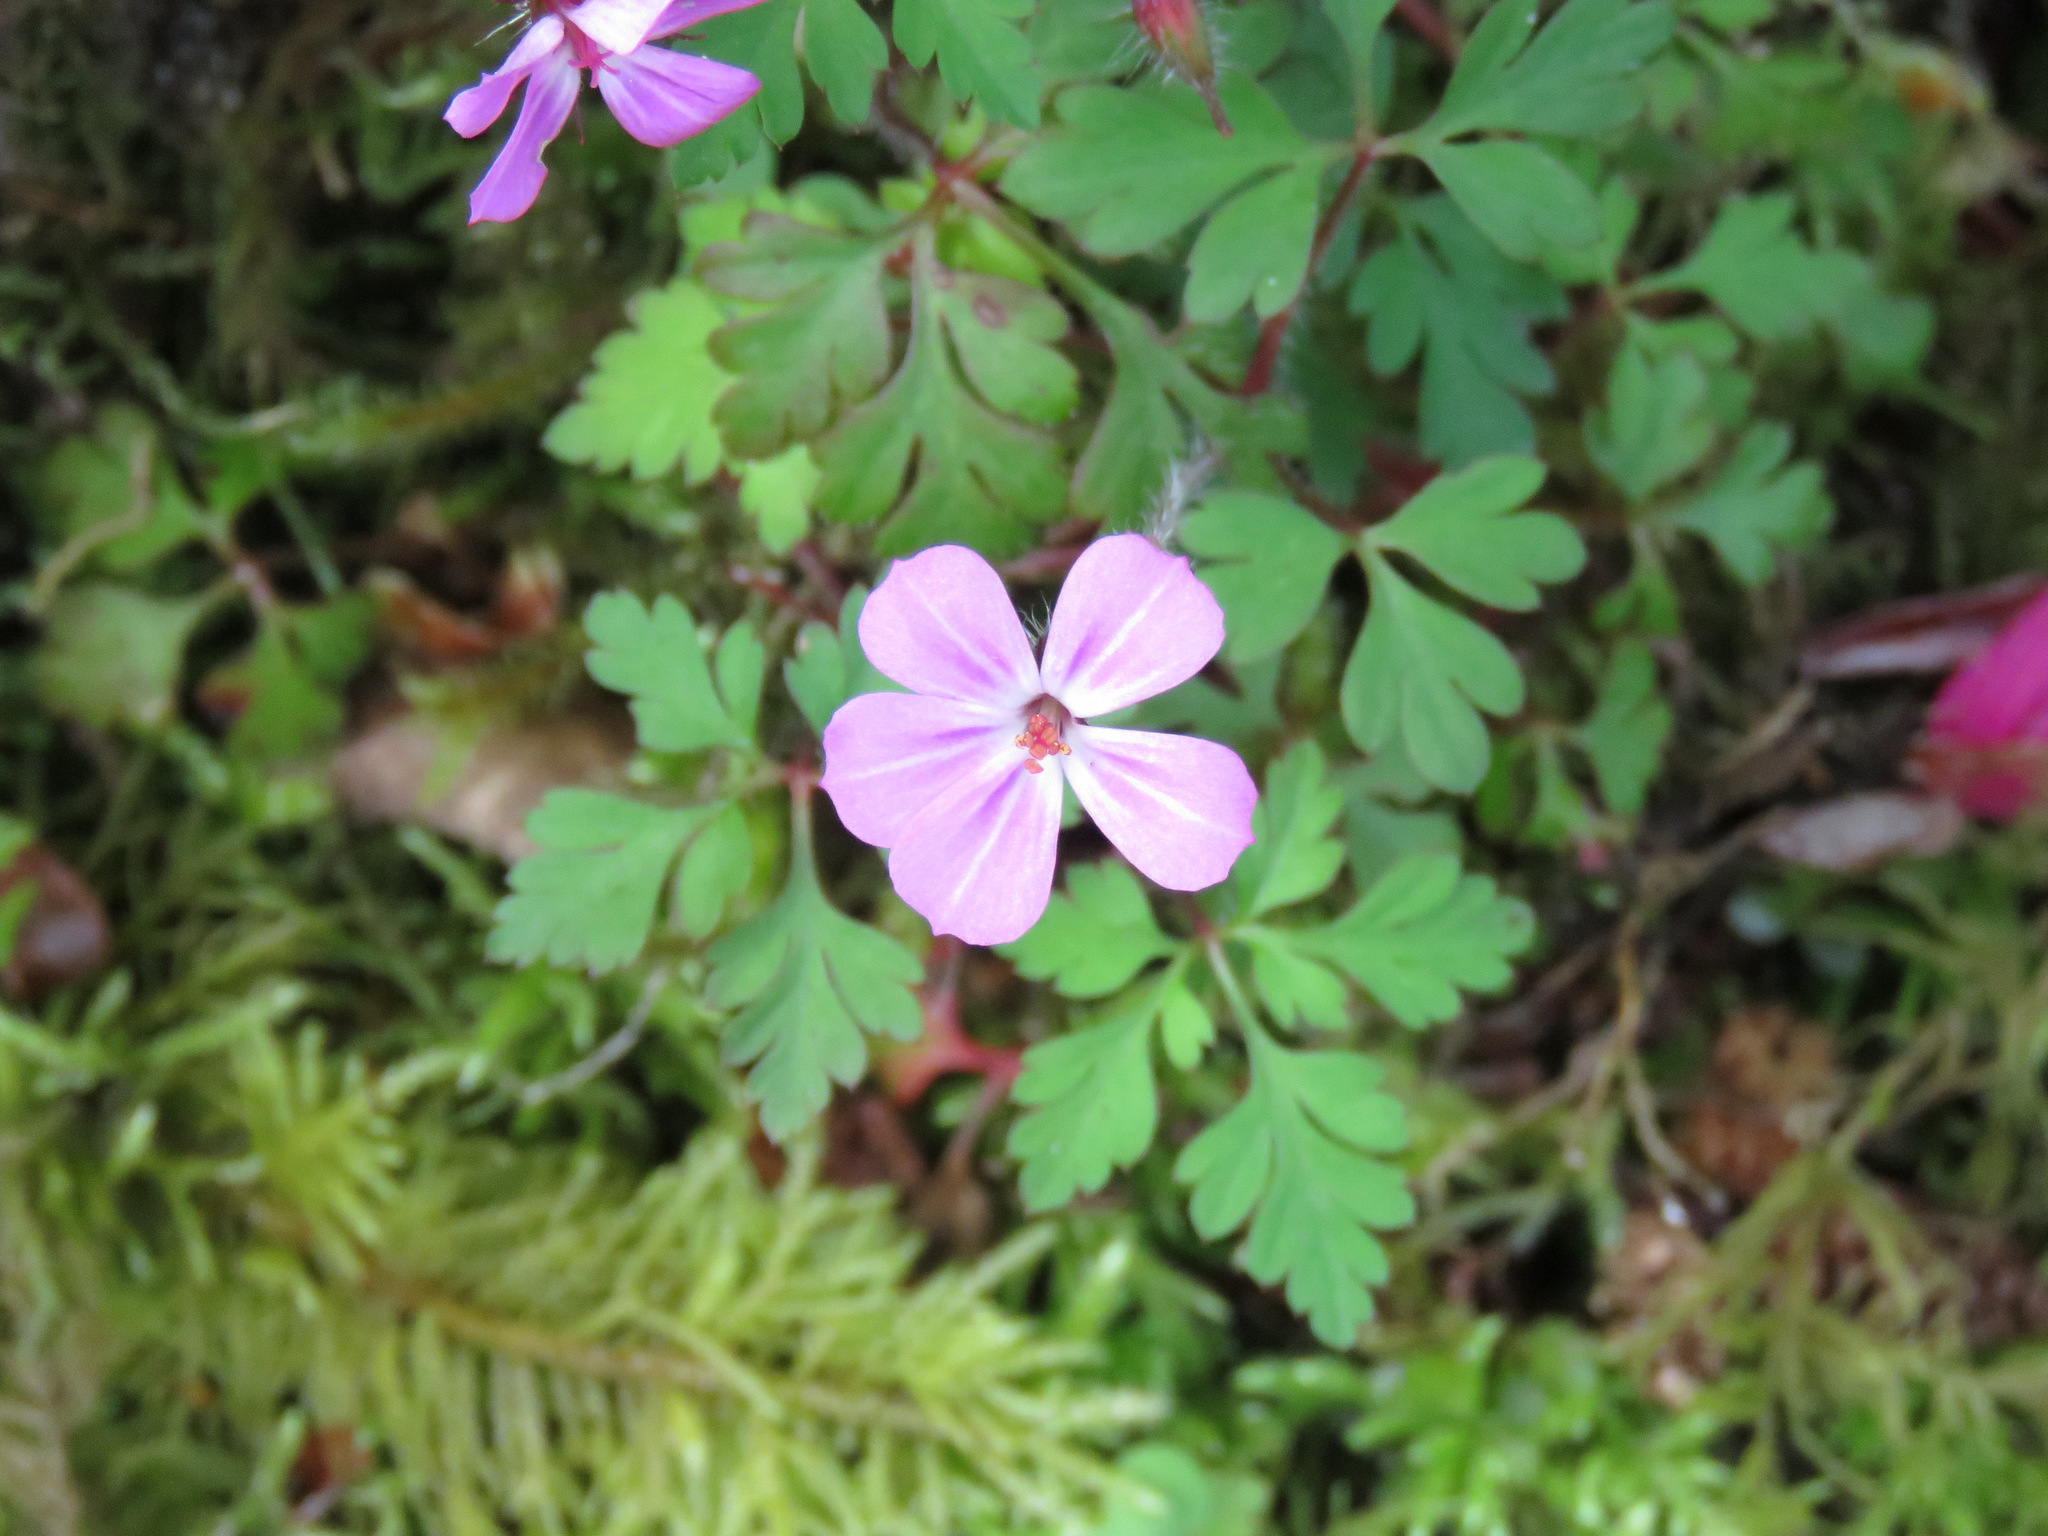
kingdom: Plantae
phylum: Tracheophyta
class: Magnoliopsida
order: Geraniales
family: Geraniaceae
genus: Geranium
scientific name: Geranium robertianum
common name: Herb-robert
